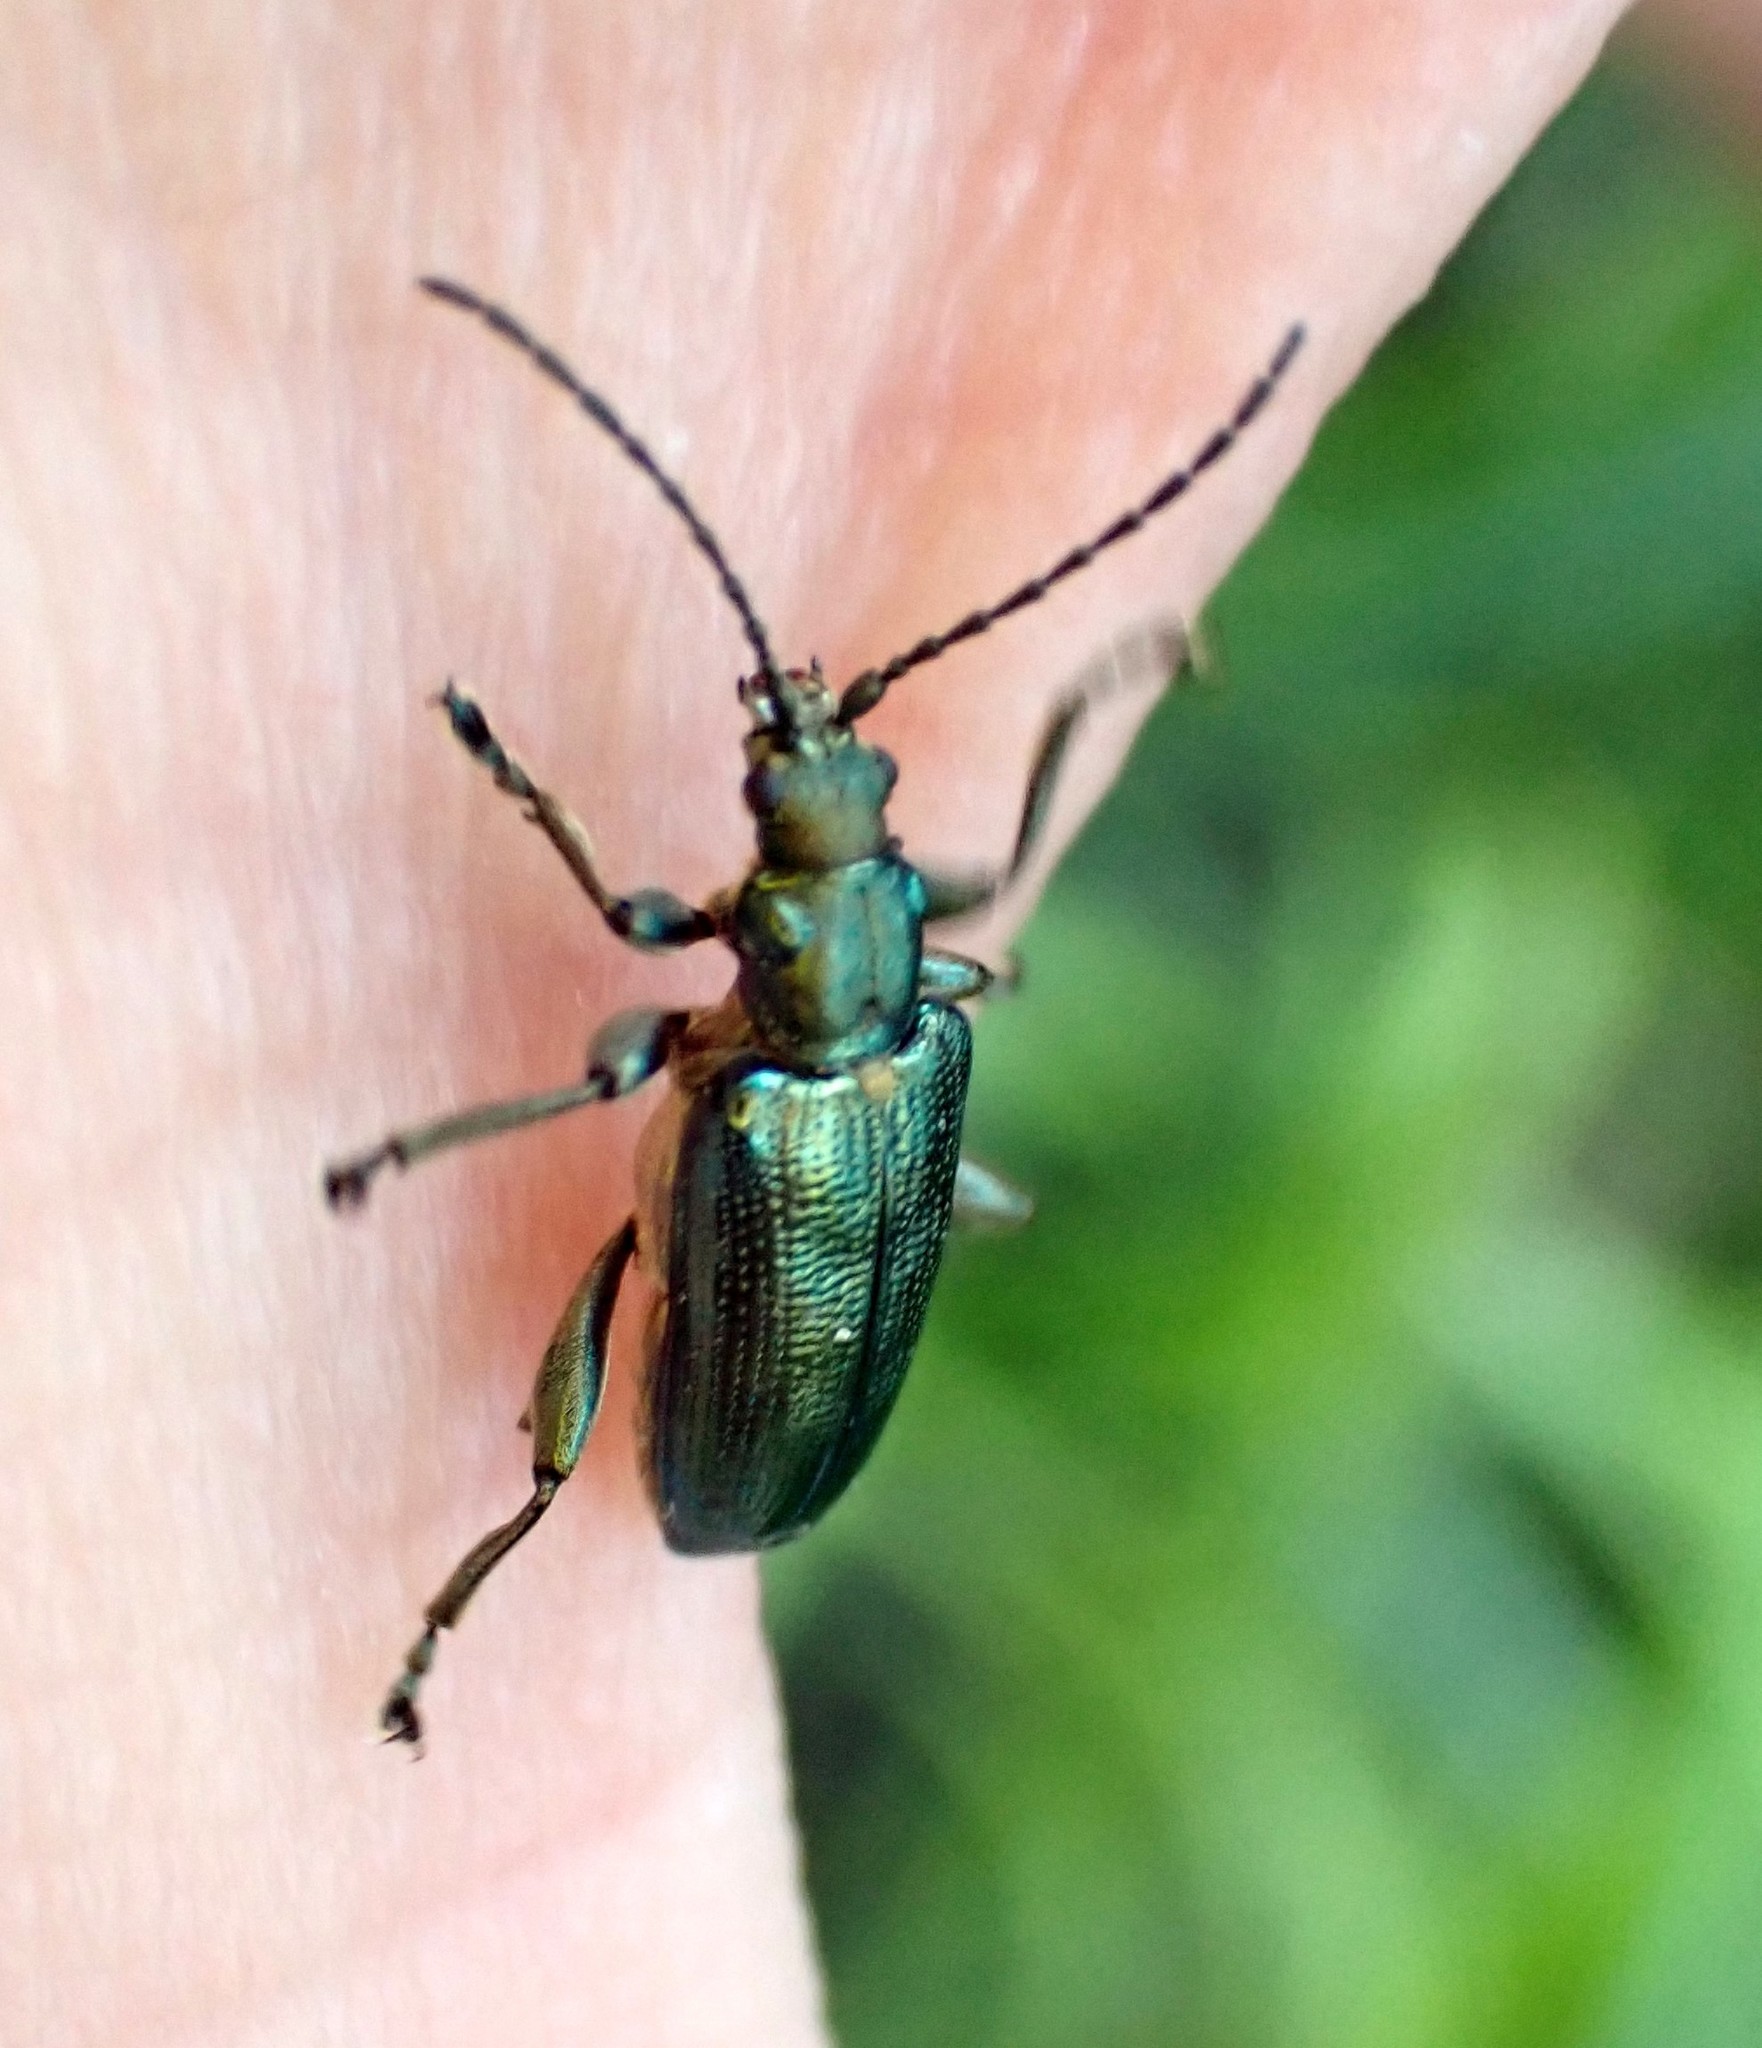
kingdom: Animalia
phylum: Arthropoda
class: Insecta
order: Coleoptera
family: Chrysomelidae
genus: Plateumaris
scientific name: Plateumaris sericea
